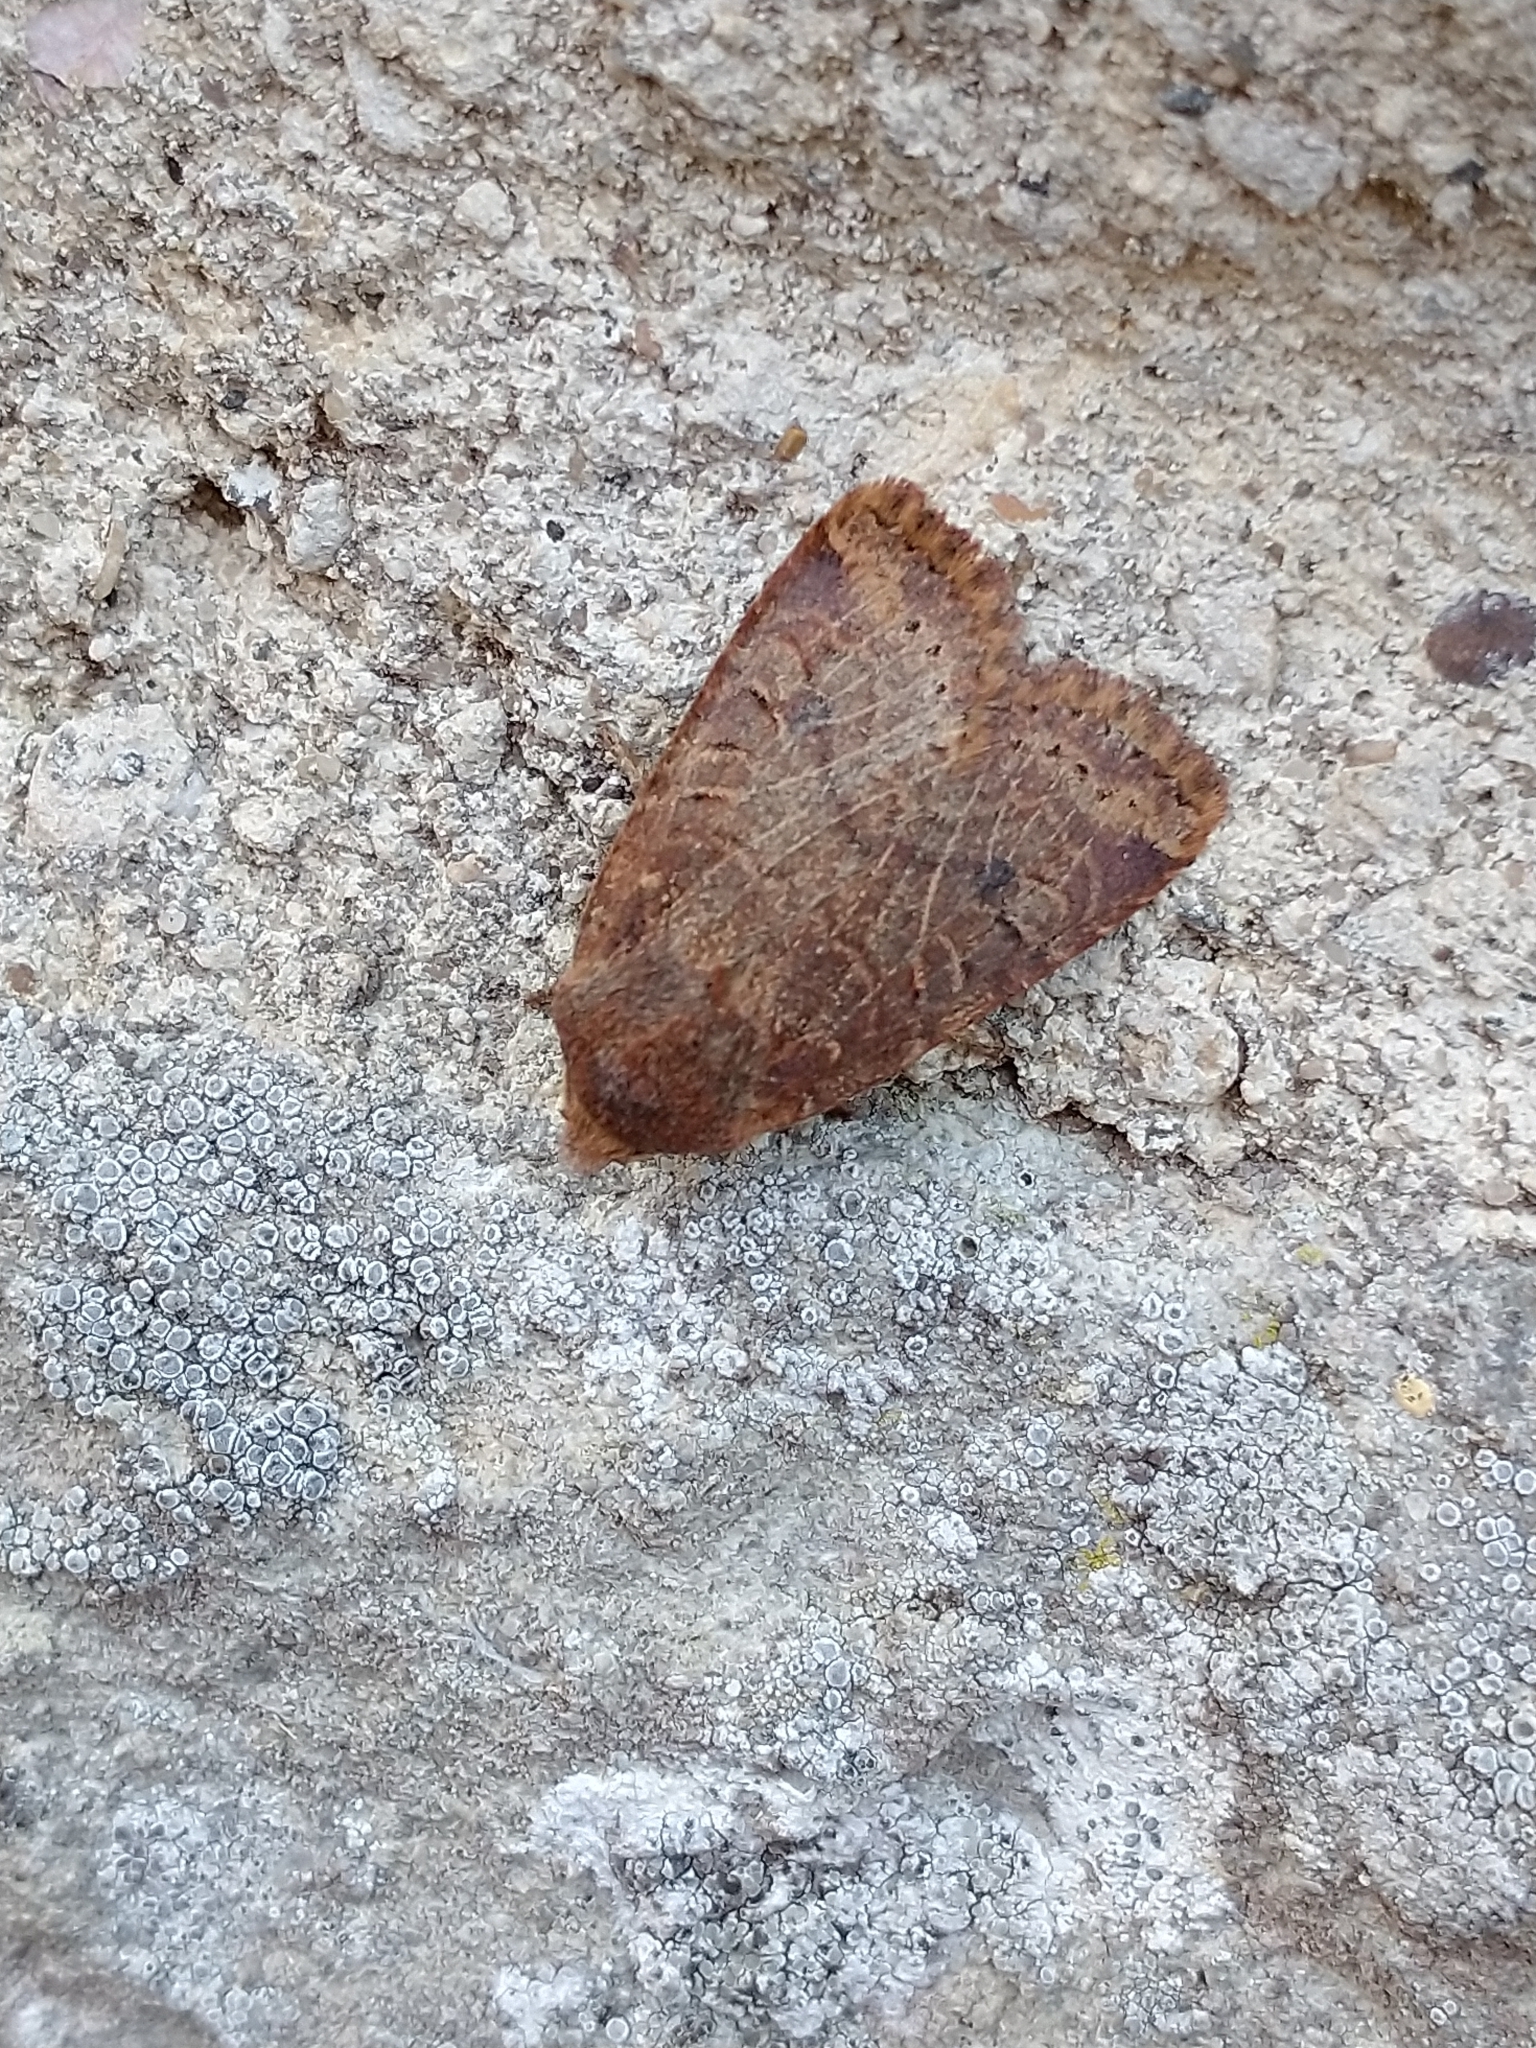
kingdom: Animalia
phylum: Arthropoda
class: Insecta
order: Lepidoptera
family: Noctuidae
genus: Conistra
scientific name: Conistra vaccinii
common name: Chestnut
